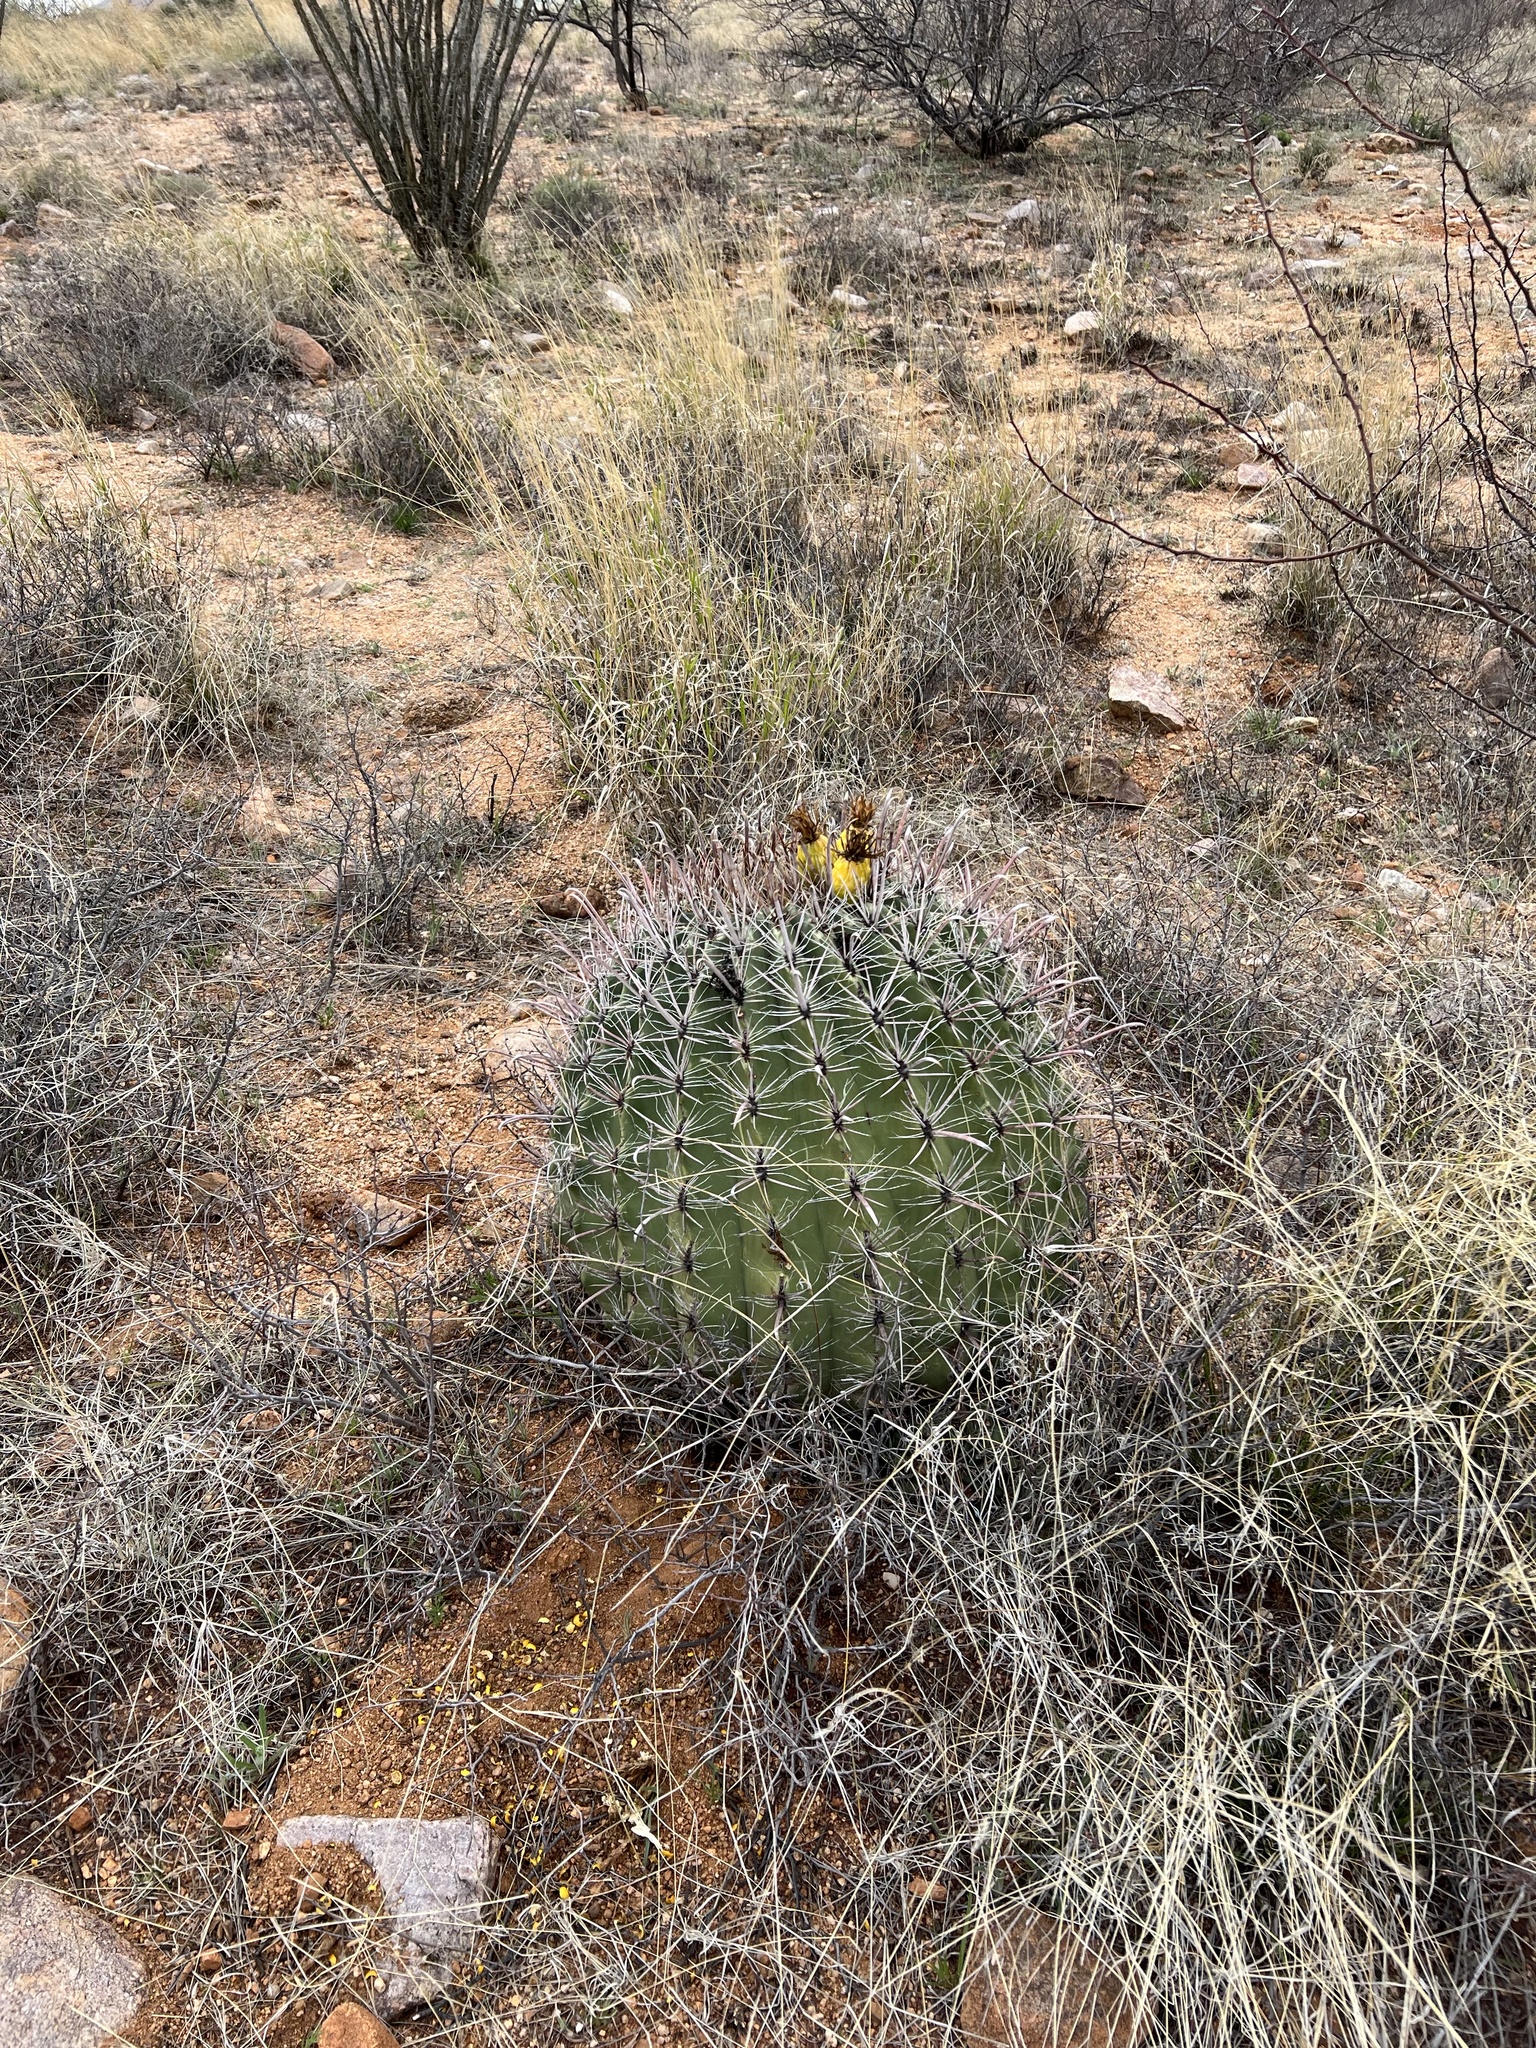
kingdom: Plantae
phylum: Tracheophyta
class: Magnoliopsida
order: Caryophyllales
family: Cactaceae
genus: Ferocactus
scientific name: Ferocactus wislizeni
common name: Candy barrel cactus
